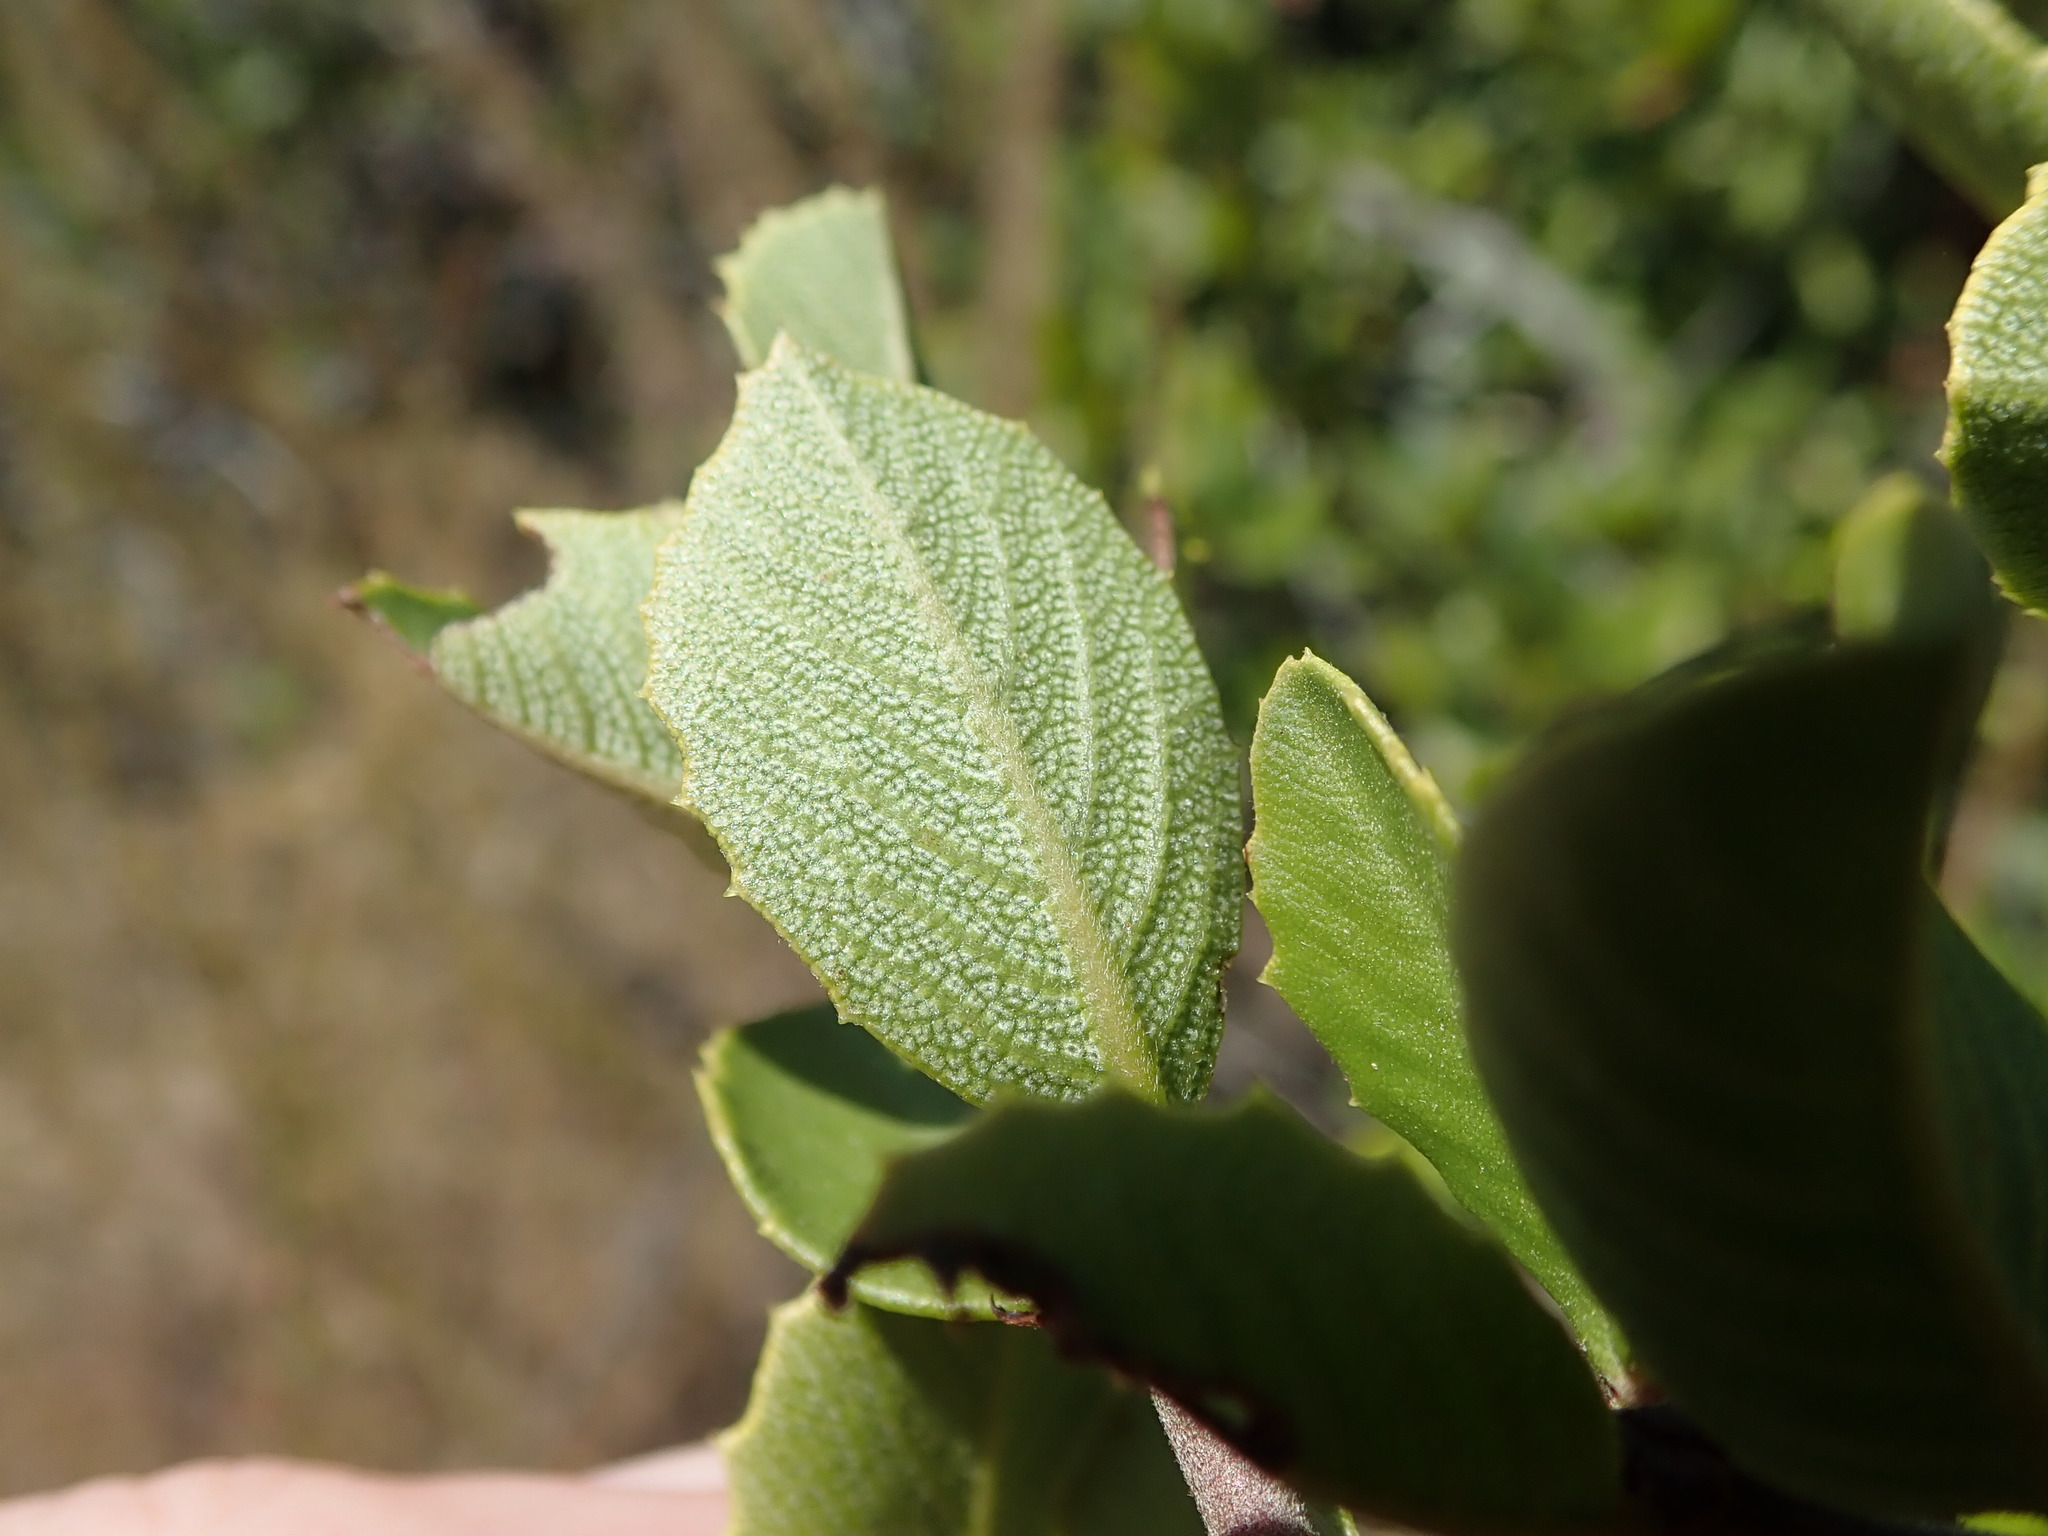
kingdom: Plantae
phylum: Tracheophyta
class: Magnoliopsida
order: Rosales
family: Rhamnaceae
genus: Ceanothus
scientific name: Ceanothus ferrisiae
